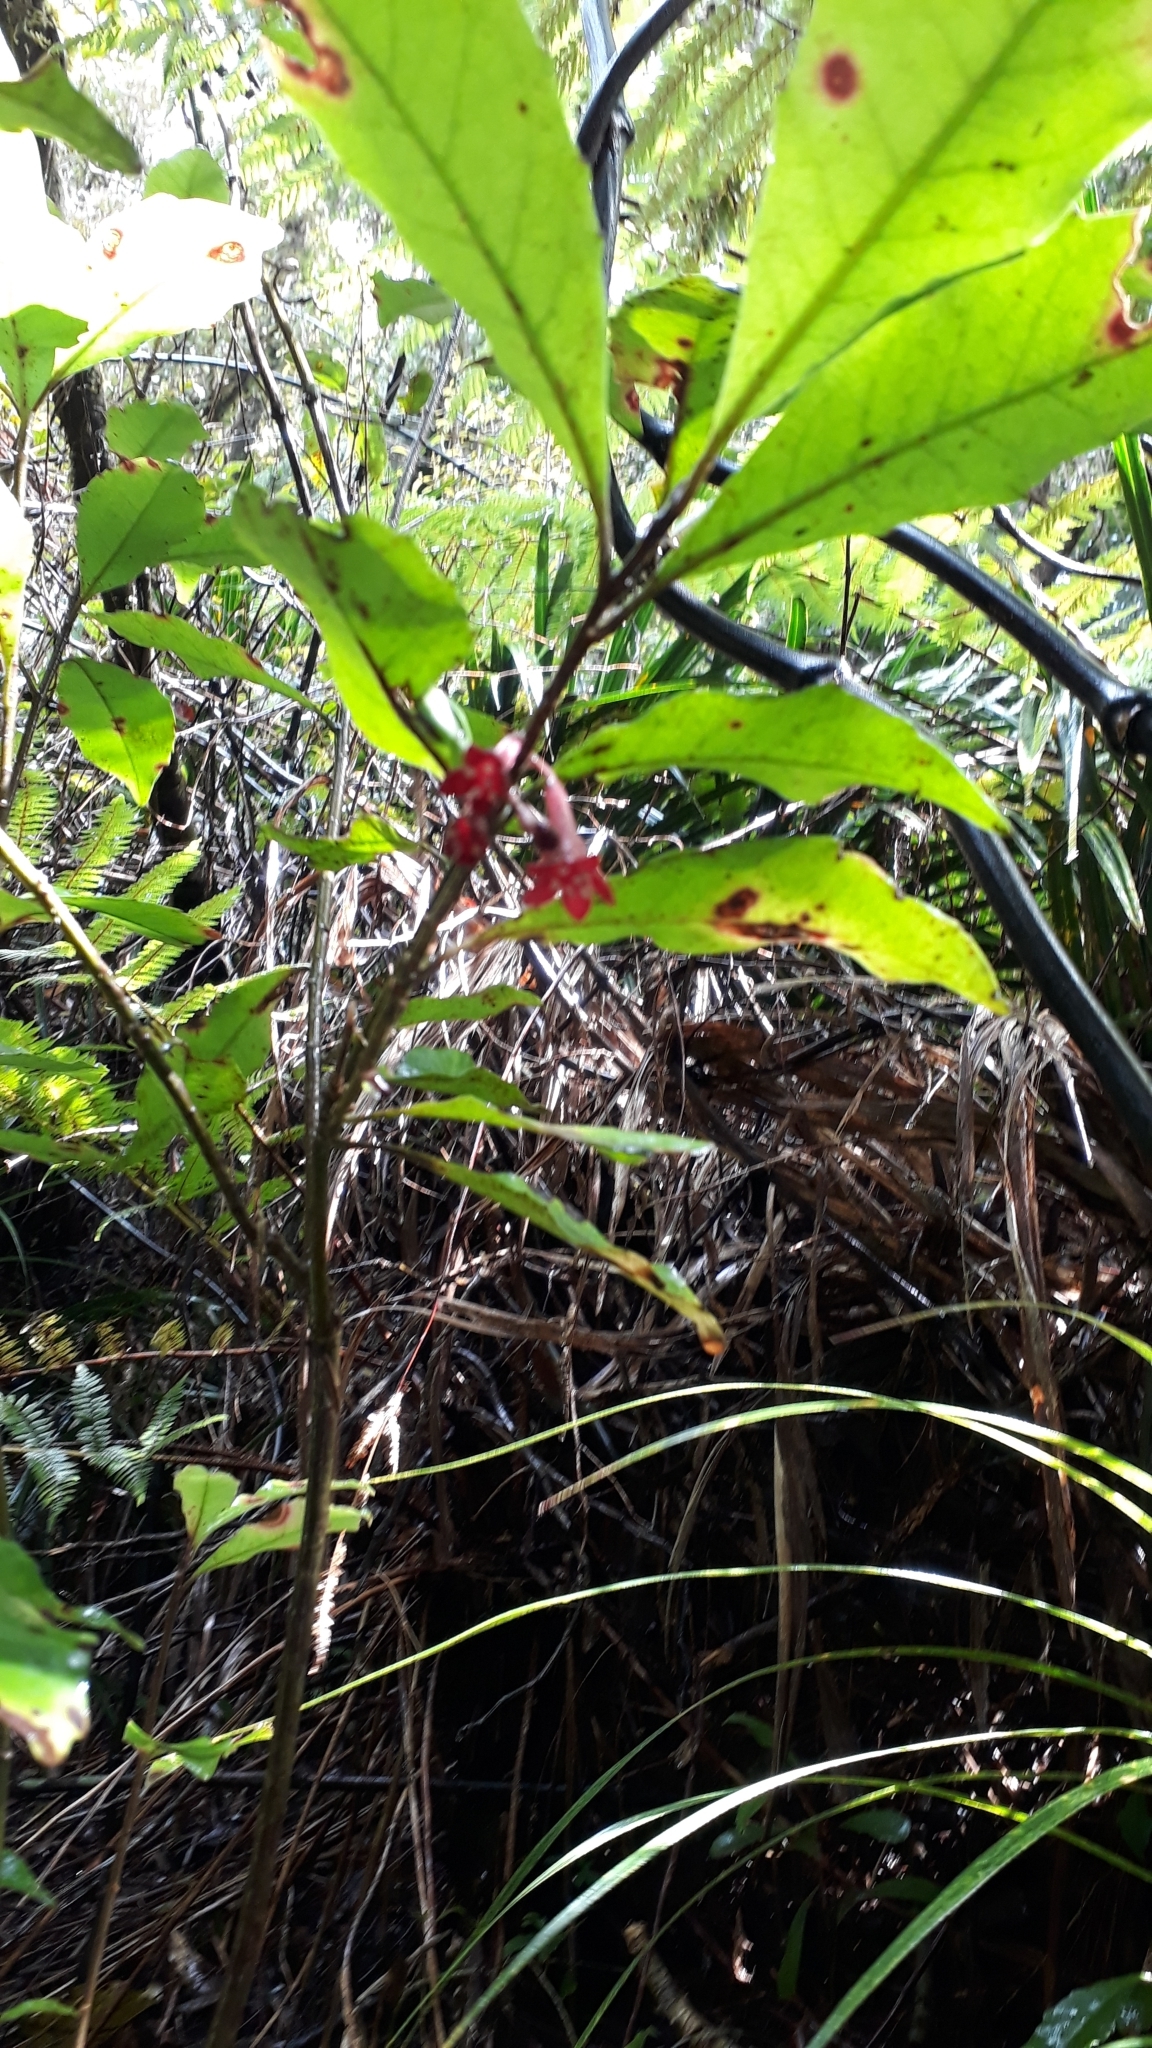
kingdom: Plantae
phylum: Tracheophyta
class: Magnoliopsida
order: Asterales
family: Alseuosmiaceae
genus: Alseuosmia
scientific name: Alseuosmia macrophylla
